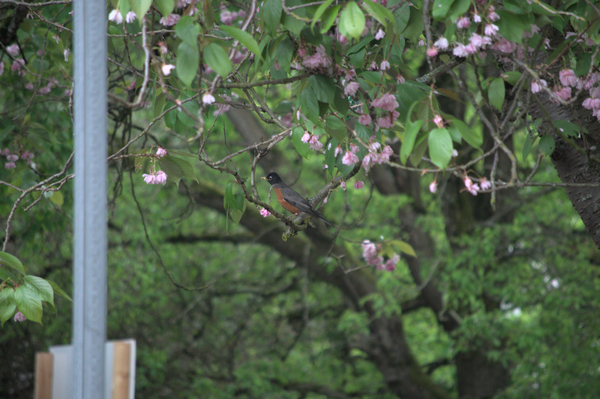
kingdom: Animalia
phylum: Chordata
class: Aves
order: Passeriformes
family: Turdidae
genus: Turdus
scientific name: Turdus migratorius
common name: American robin
